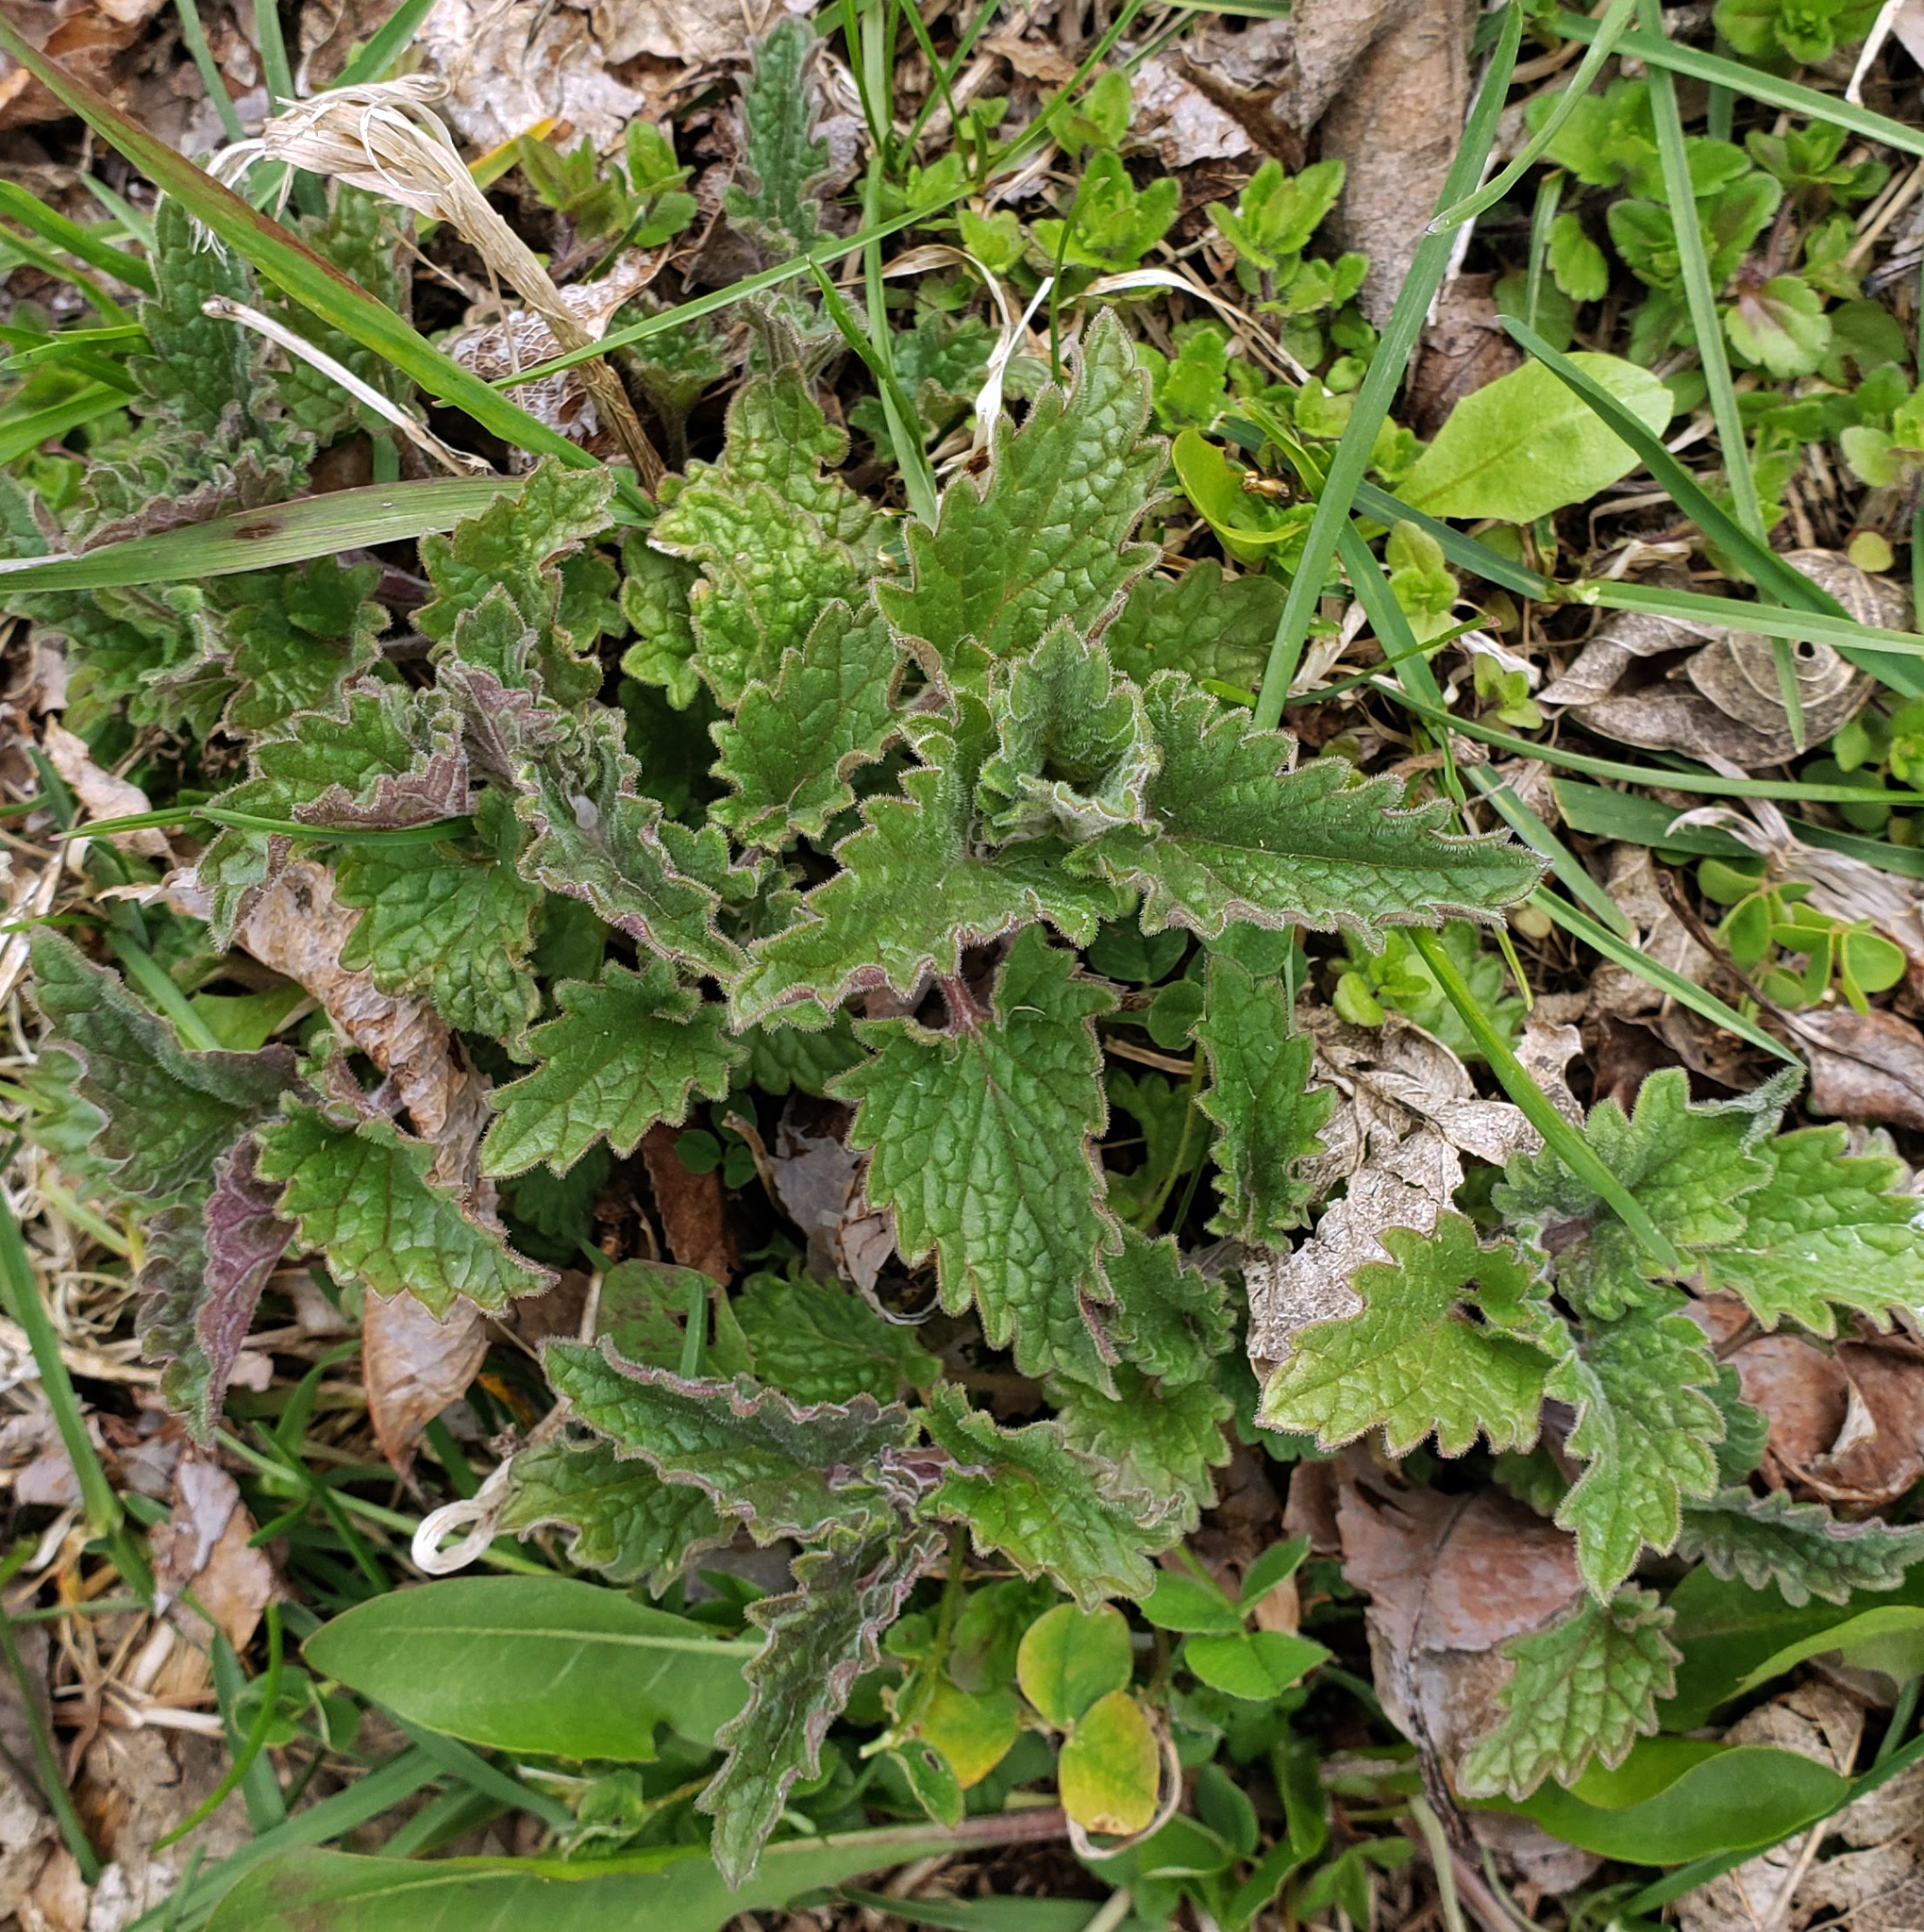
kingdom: Plantae
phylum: Tracheophyta
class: Magnoliopsida
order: Lamiales
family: Lamiaceae
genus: Nepeta
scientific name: Nepeta cataria
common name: Catnip
